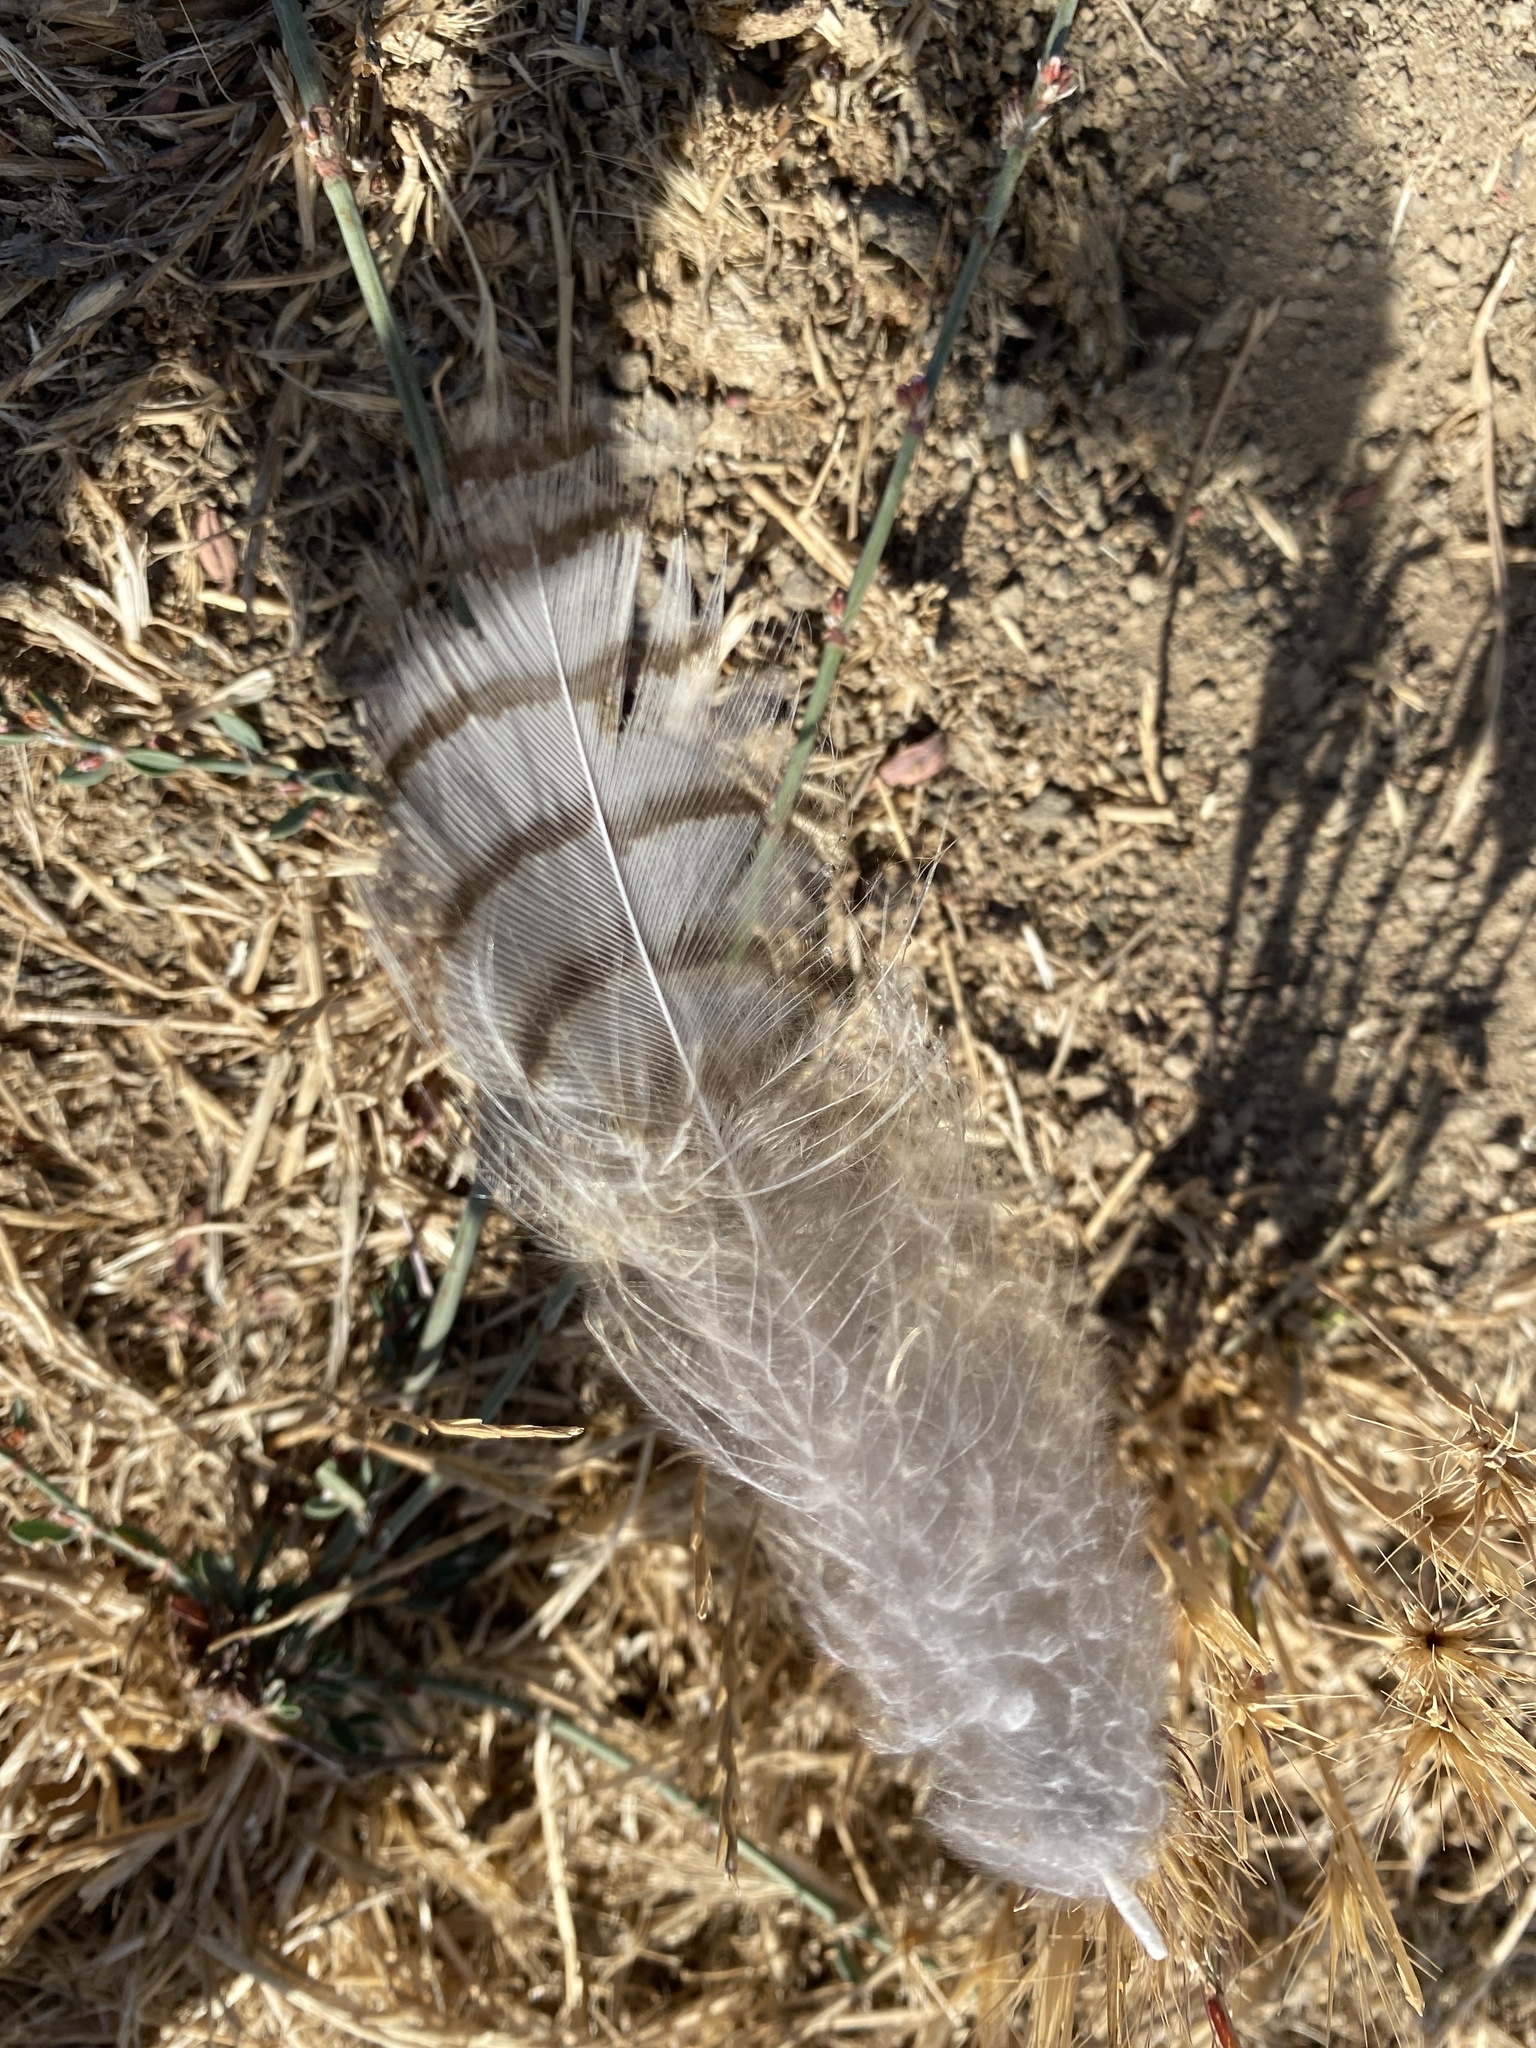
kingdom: Animalia
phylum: Chordata
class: Aves
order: Strigiformes
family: Strigidae
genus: Bubo
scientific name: Bubo virginianus
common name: Great horned owl
